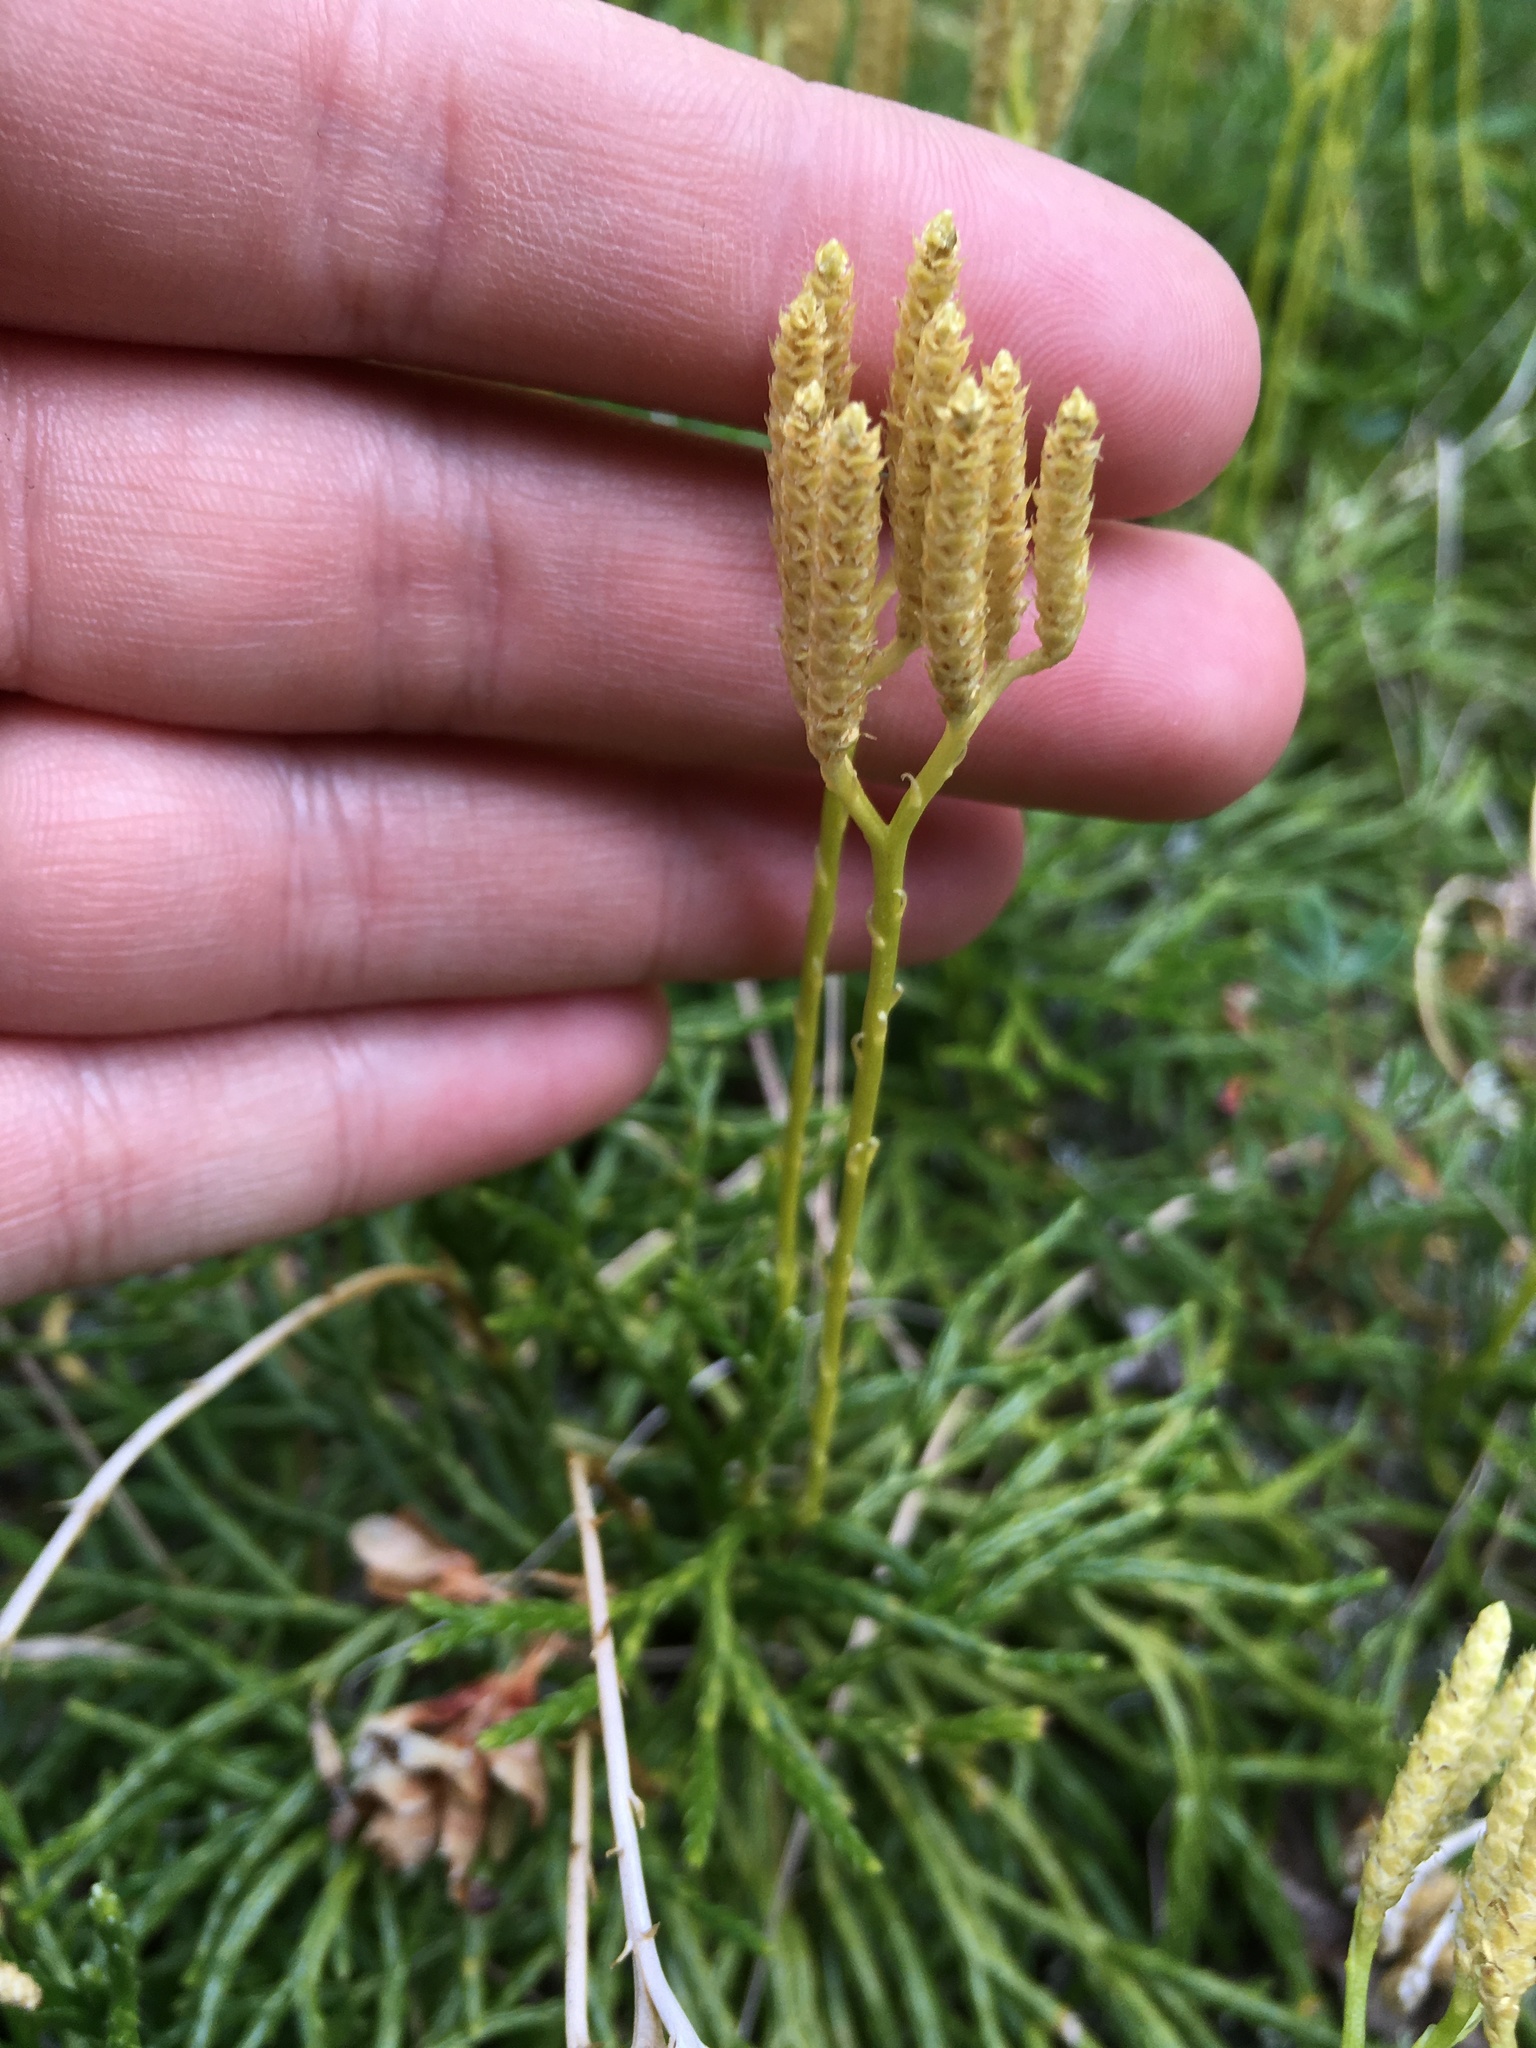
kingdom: Plantae
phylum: Tracheophyta
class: Lycopodiopsida
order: Lycopodiales
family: Lycopodiaceae
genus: Diphasiastrum
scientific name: Diphasiastrum complanatum
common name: Northern running-pine
